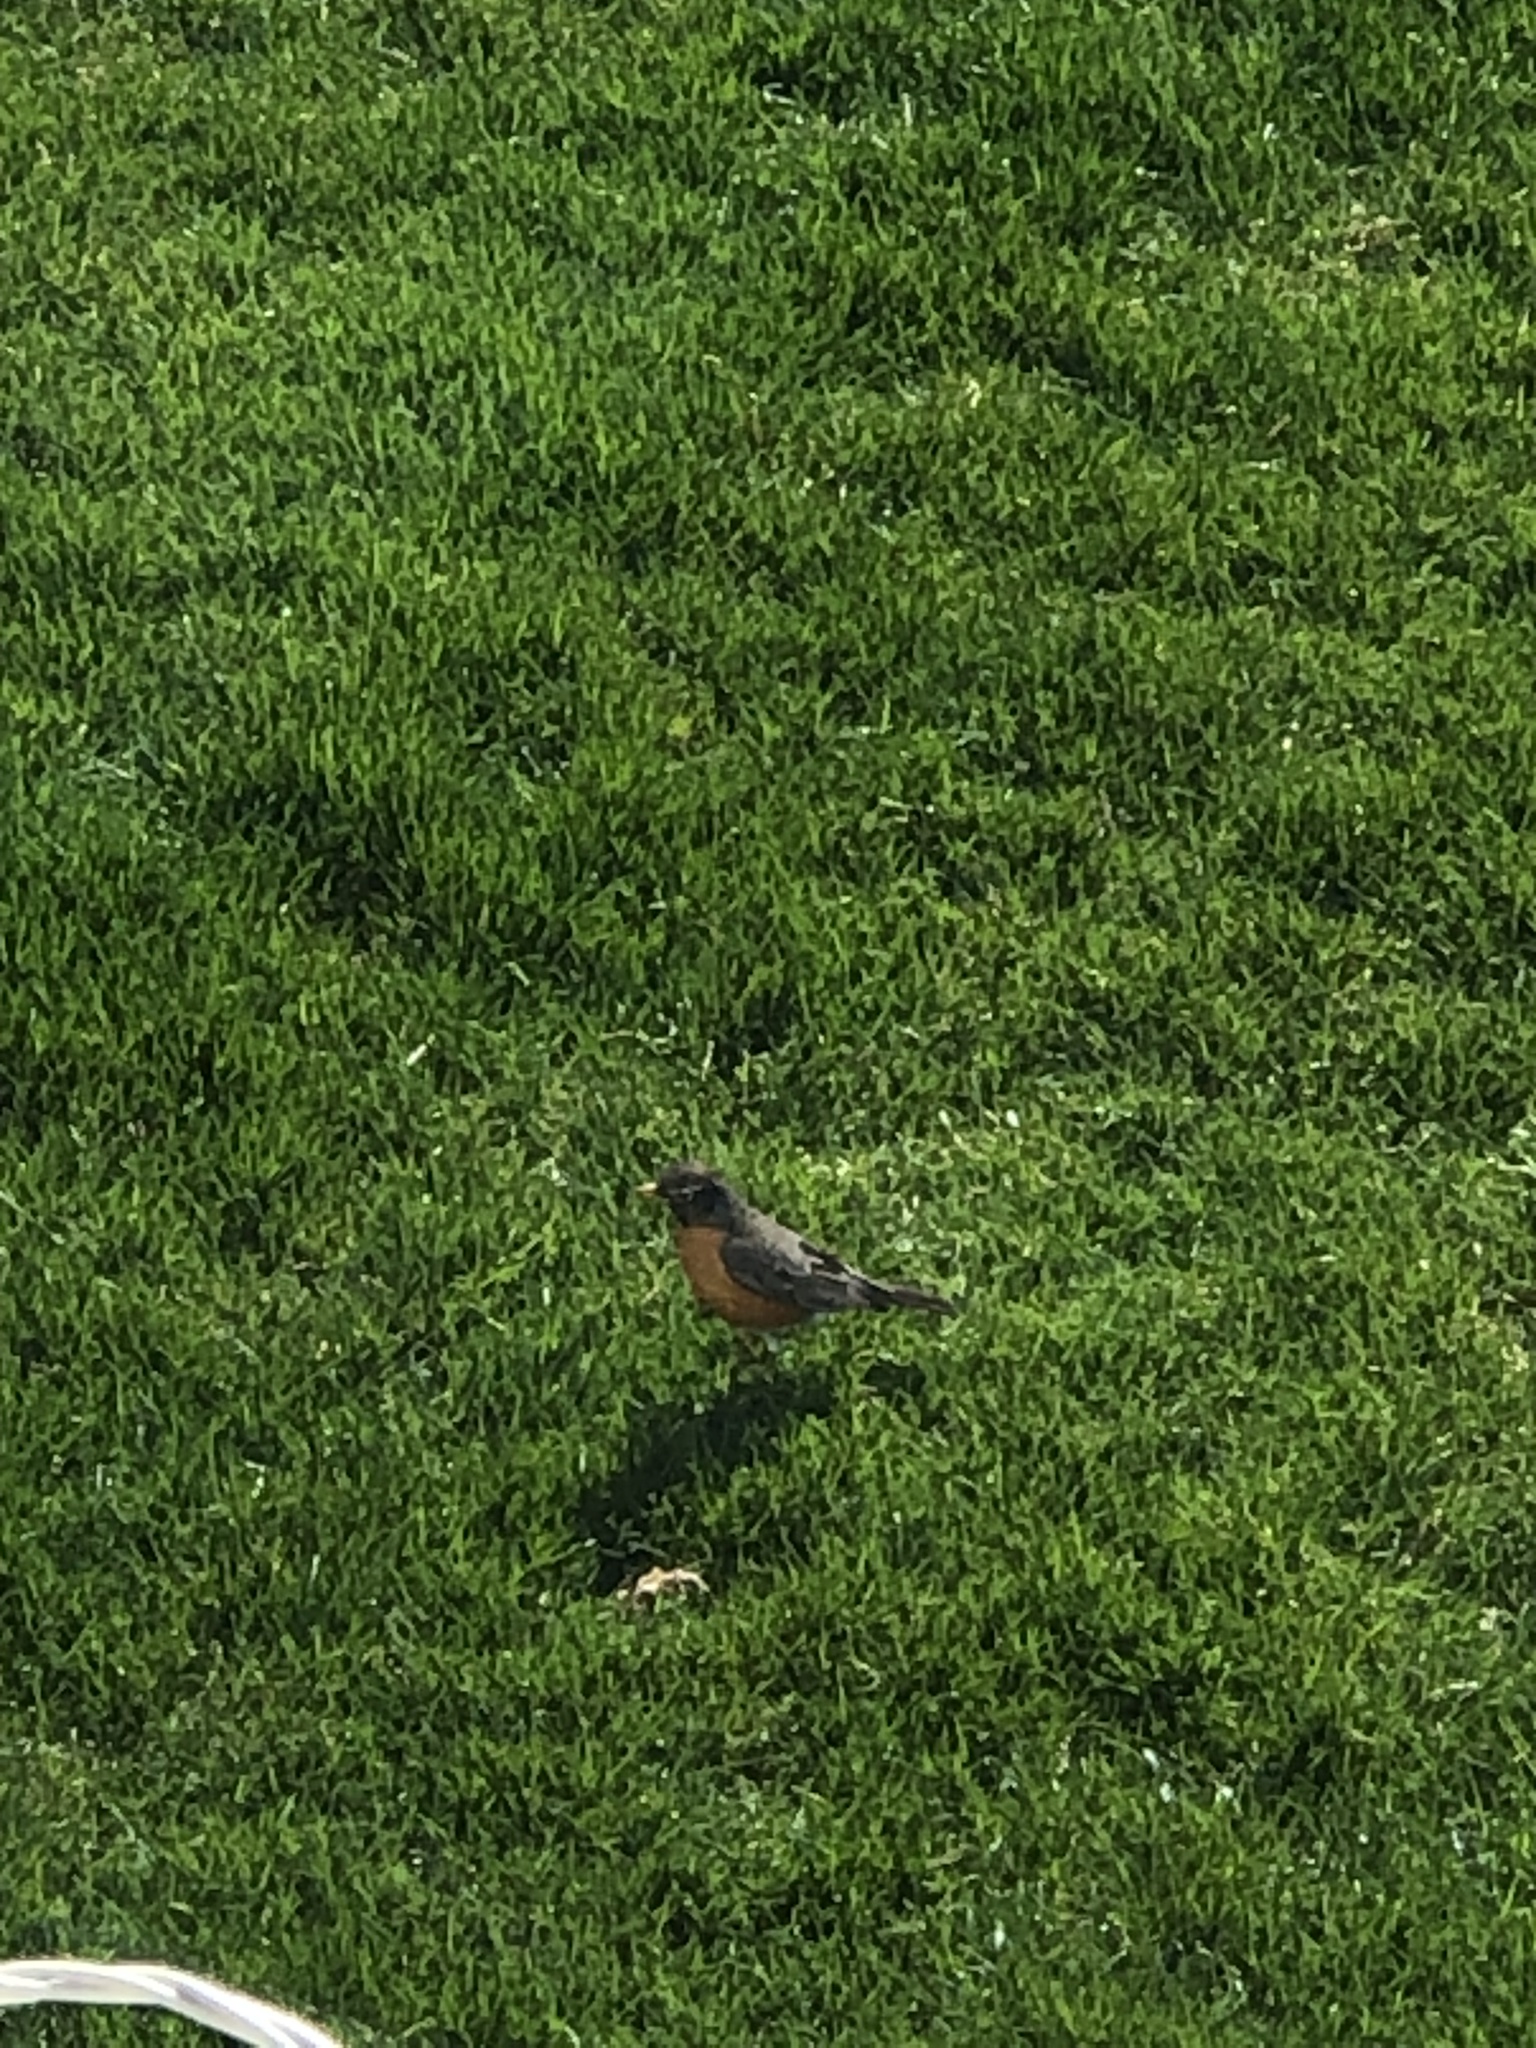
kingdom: Animalia
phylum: Chordata
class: Aves
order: Passeriformes
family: Turdidae
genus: Turdus
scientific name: Turdus migratorius
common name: American robin
